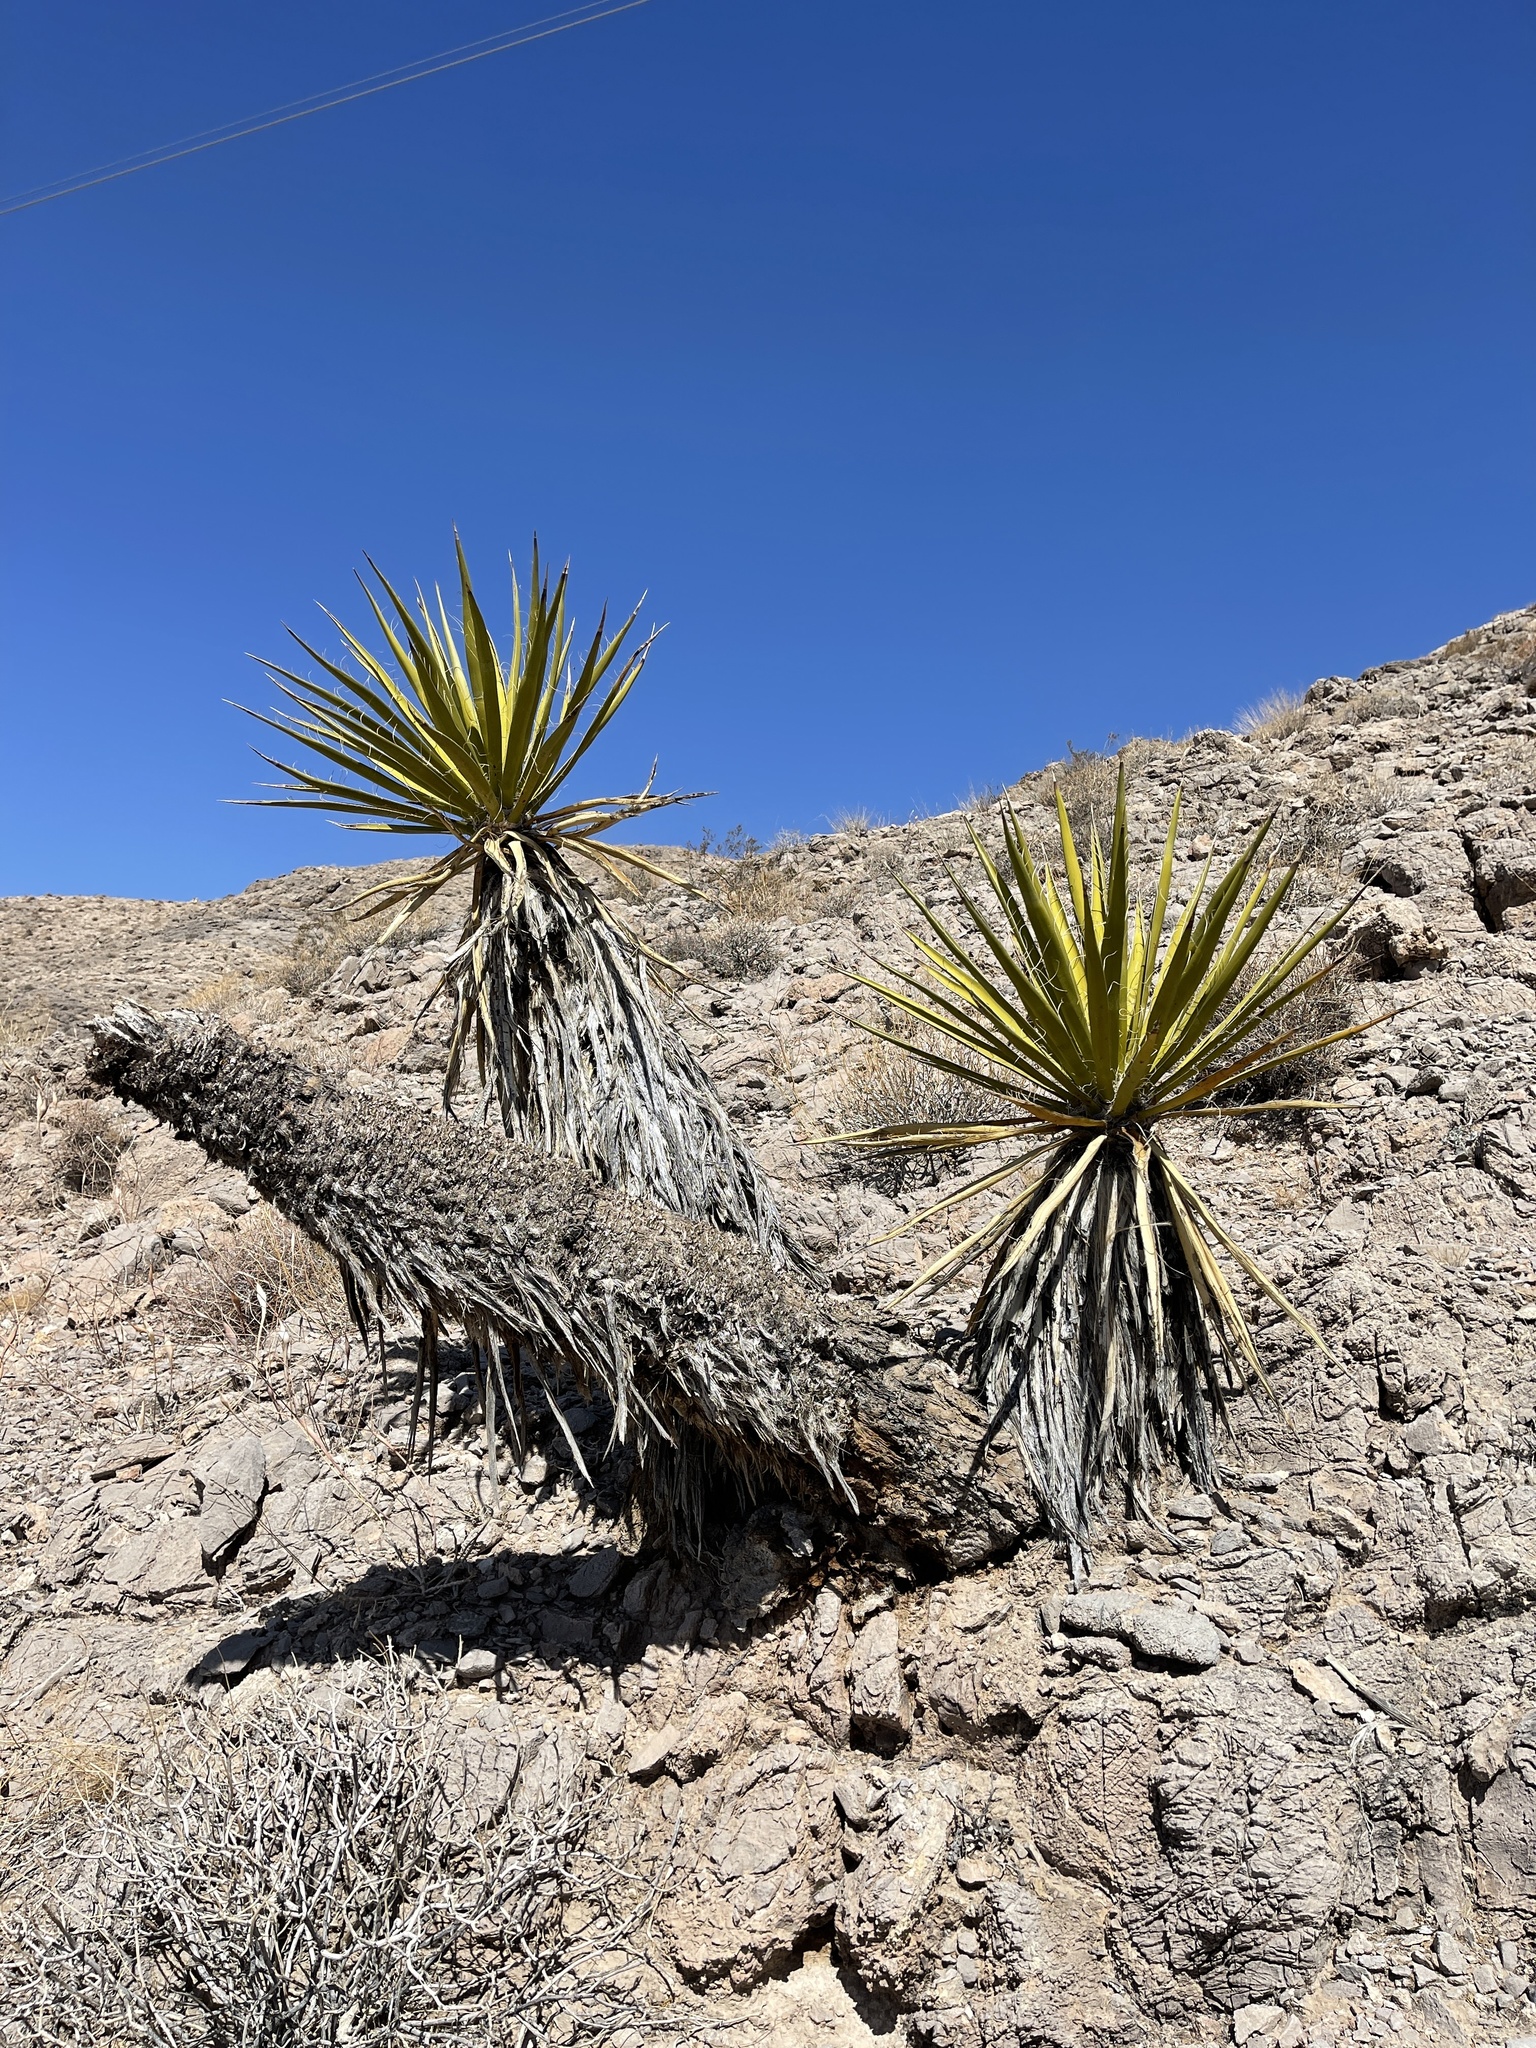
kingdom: Plantae
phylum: Tracheophyta
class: Liliopsida
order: Asparagales
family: Asparagaceae
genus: Yucca
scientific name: Yucca schidigera
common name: Mojave yucca
